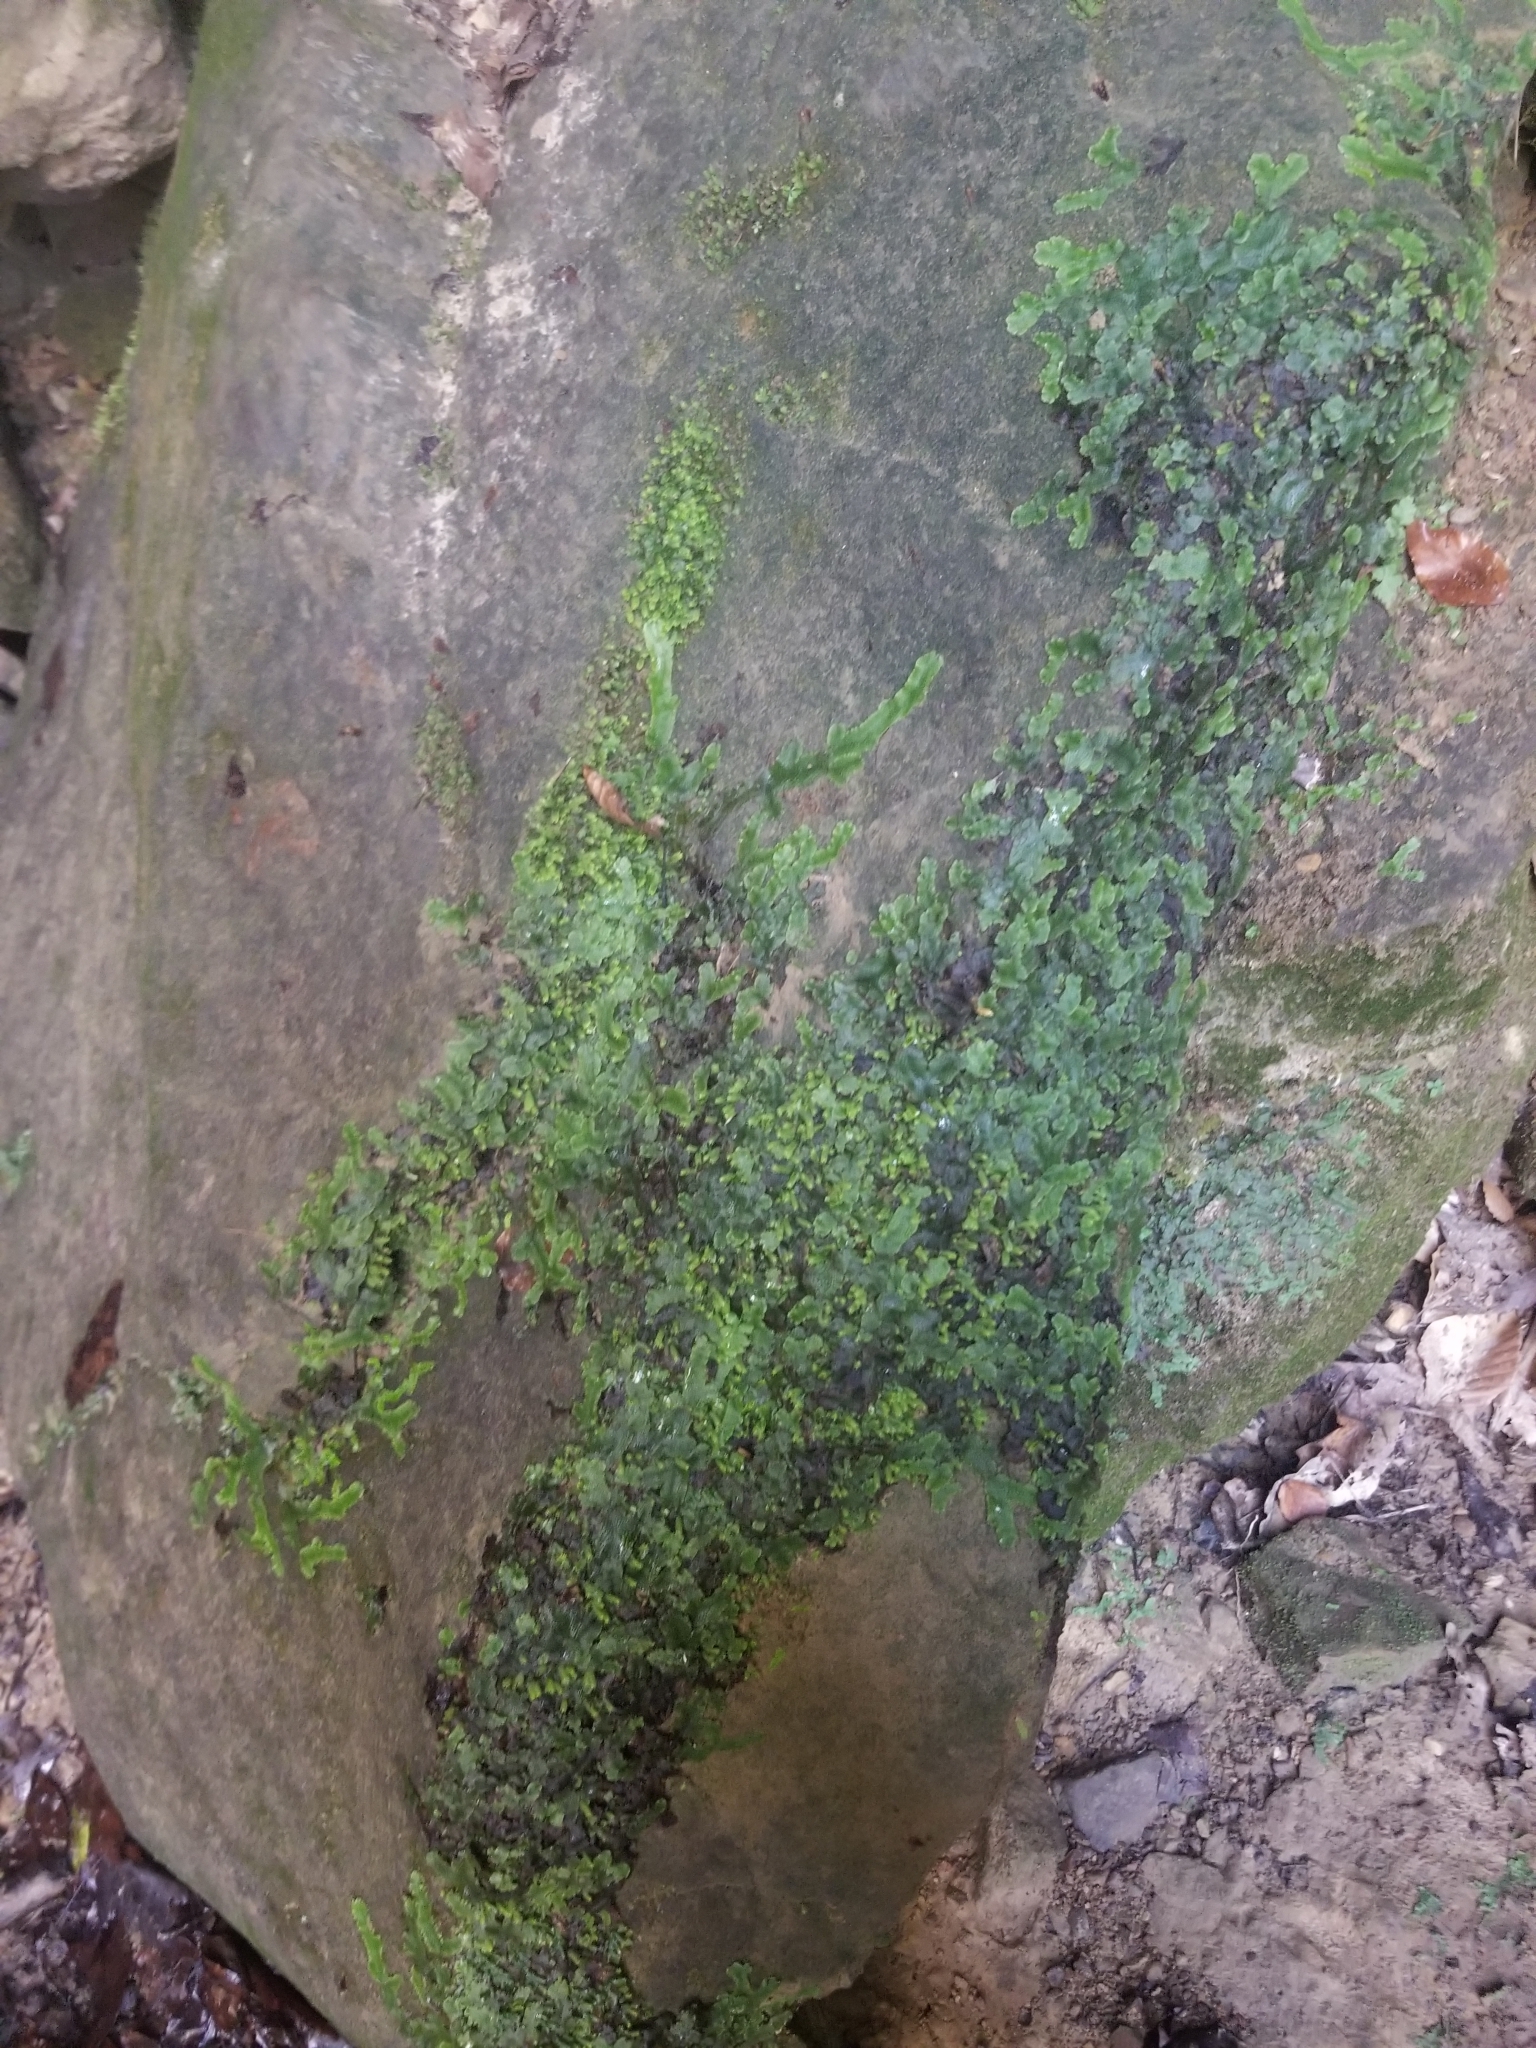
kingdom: Plantae
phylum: Marchantiophyta
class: Marchantiopsida
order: Marchantiales
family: Conocephalaceae
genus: Conocephalum
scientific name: Conocephalum salebrosum
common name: Cat-tongue liverwort
